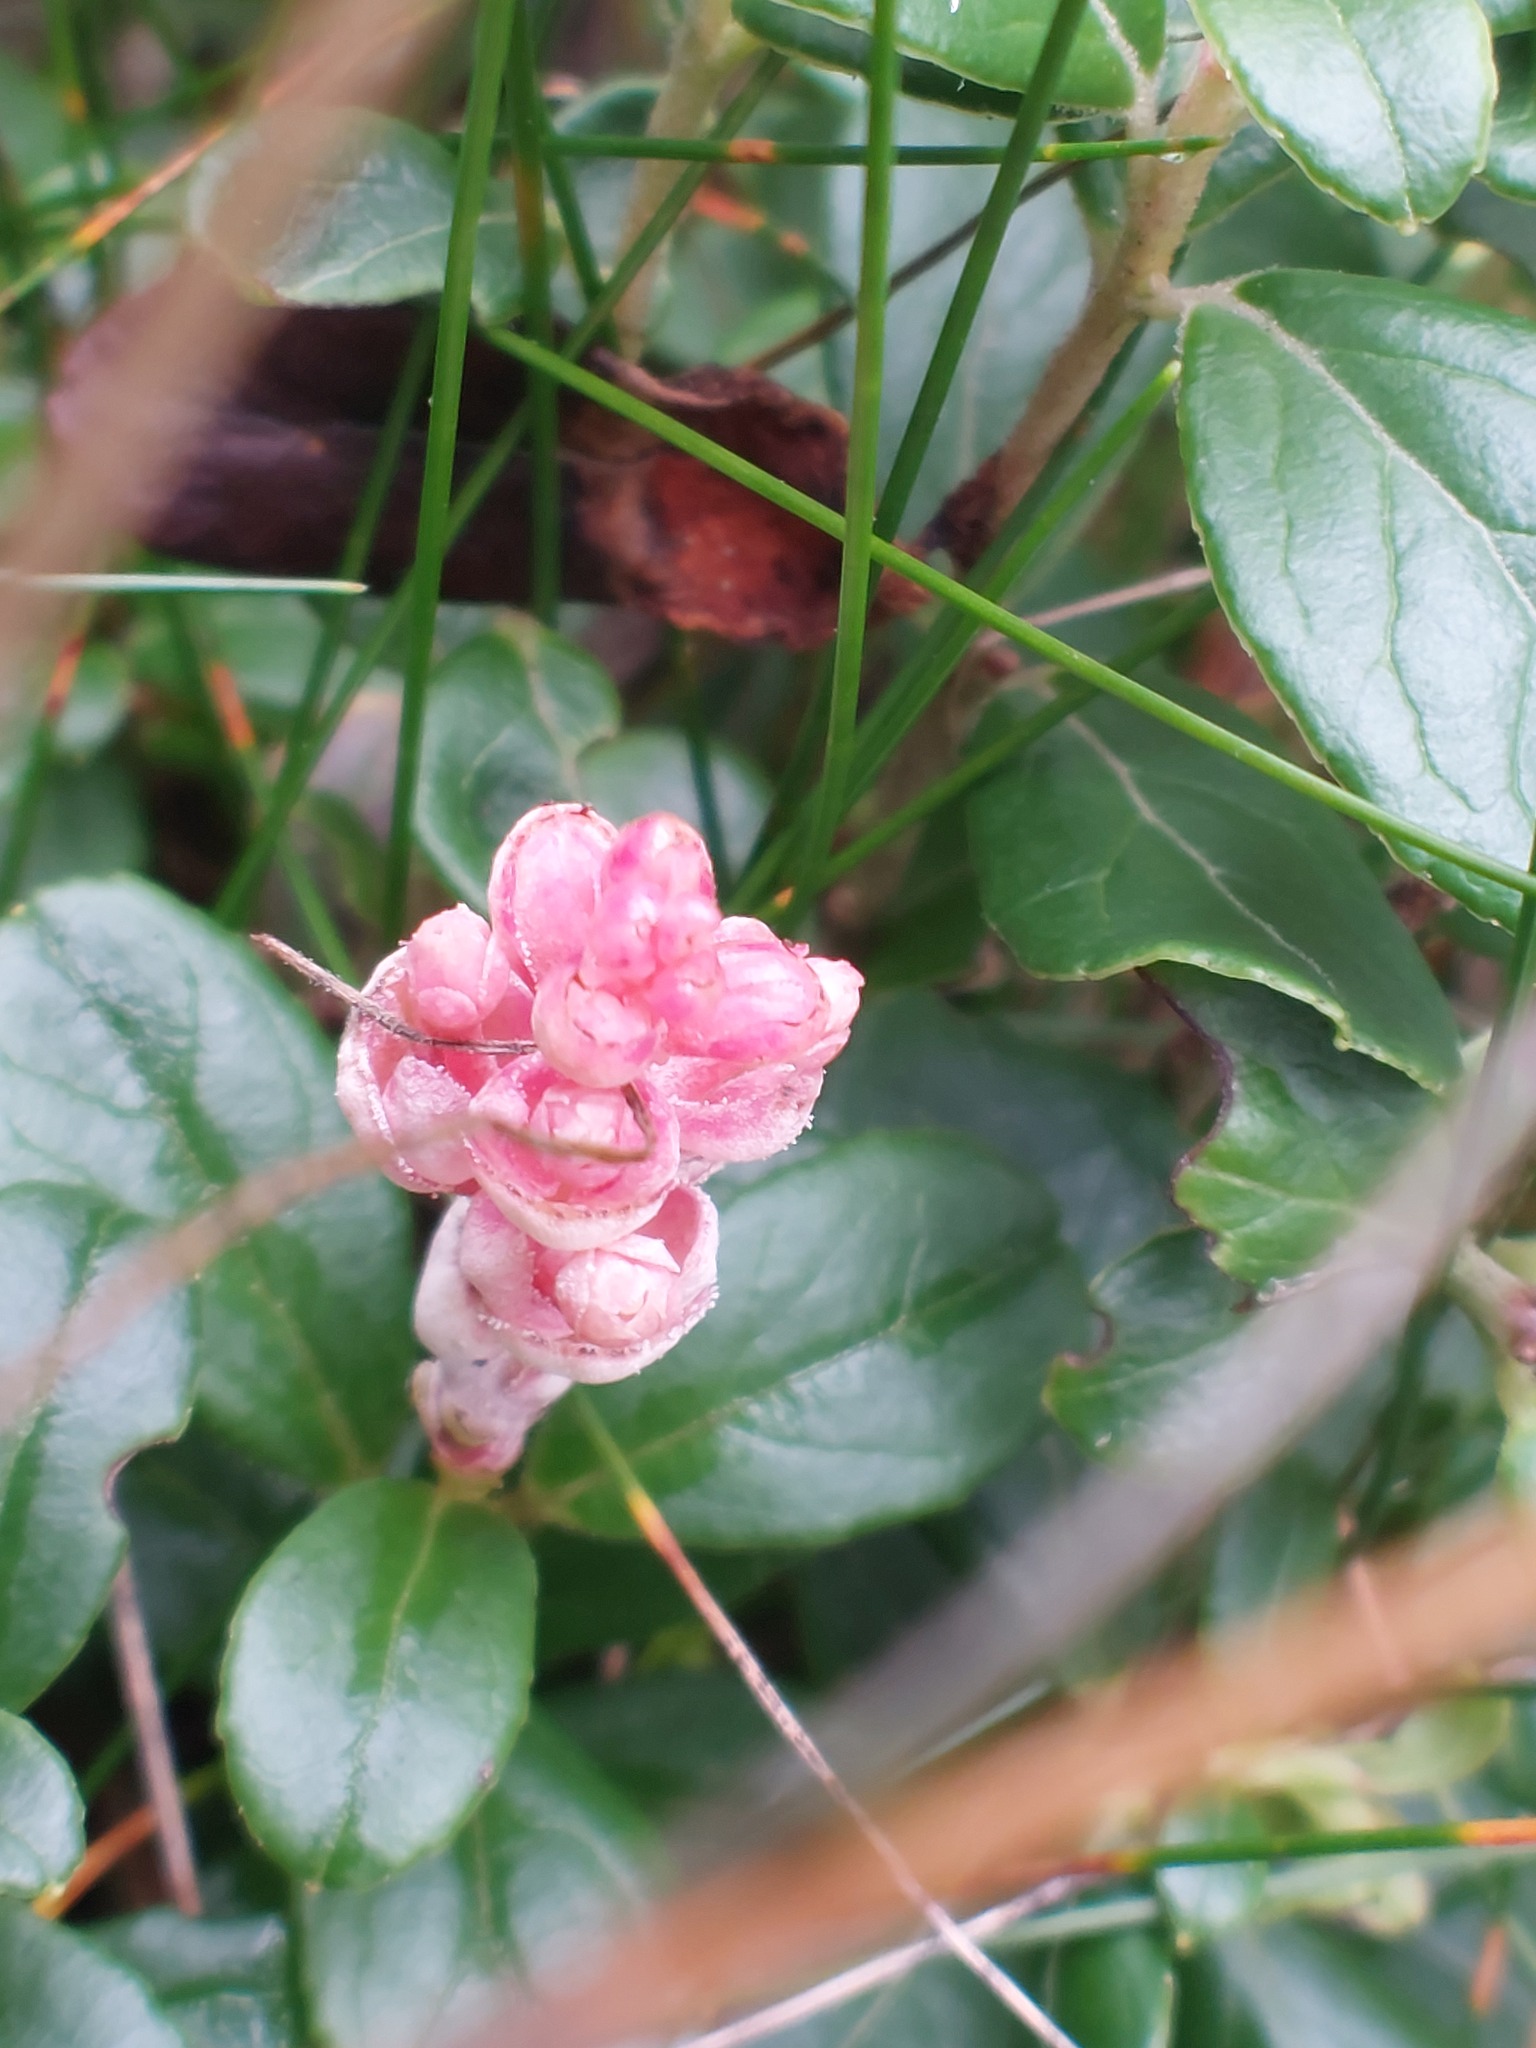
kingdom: Fungi
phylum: Basidiomycota
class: Exobasidiomycetes
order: Exobasidiales
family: Exobasidiaceae
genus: Exobasidium
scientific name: Exobasidium vaccinii
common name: Cowberry redleaf
